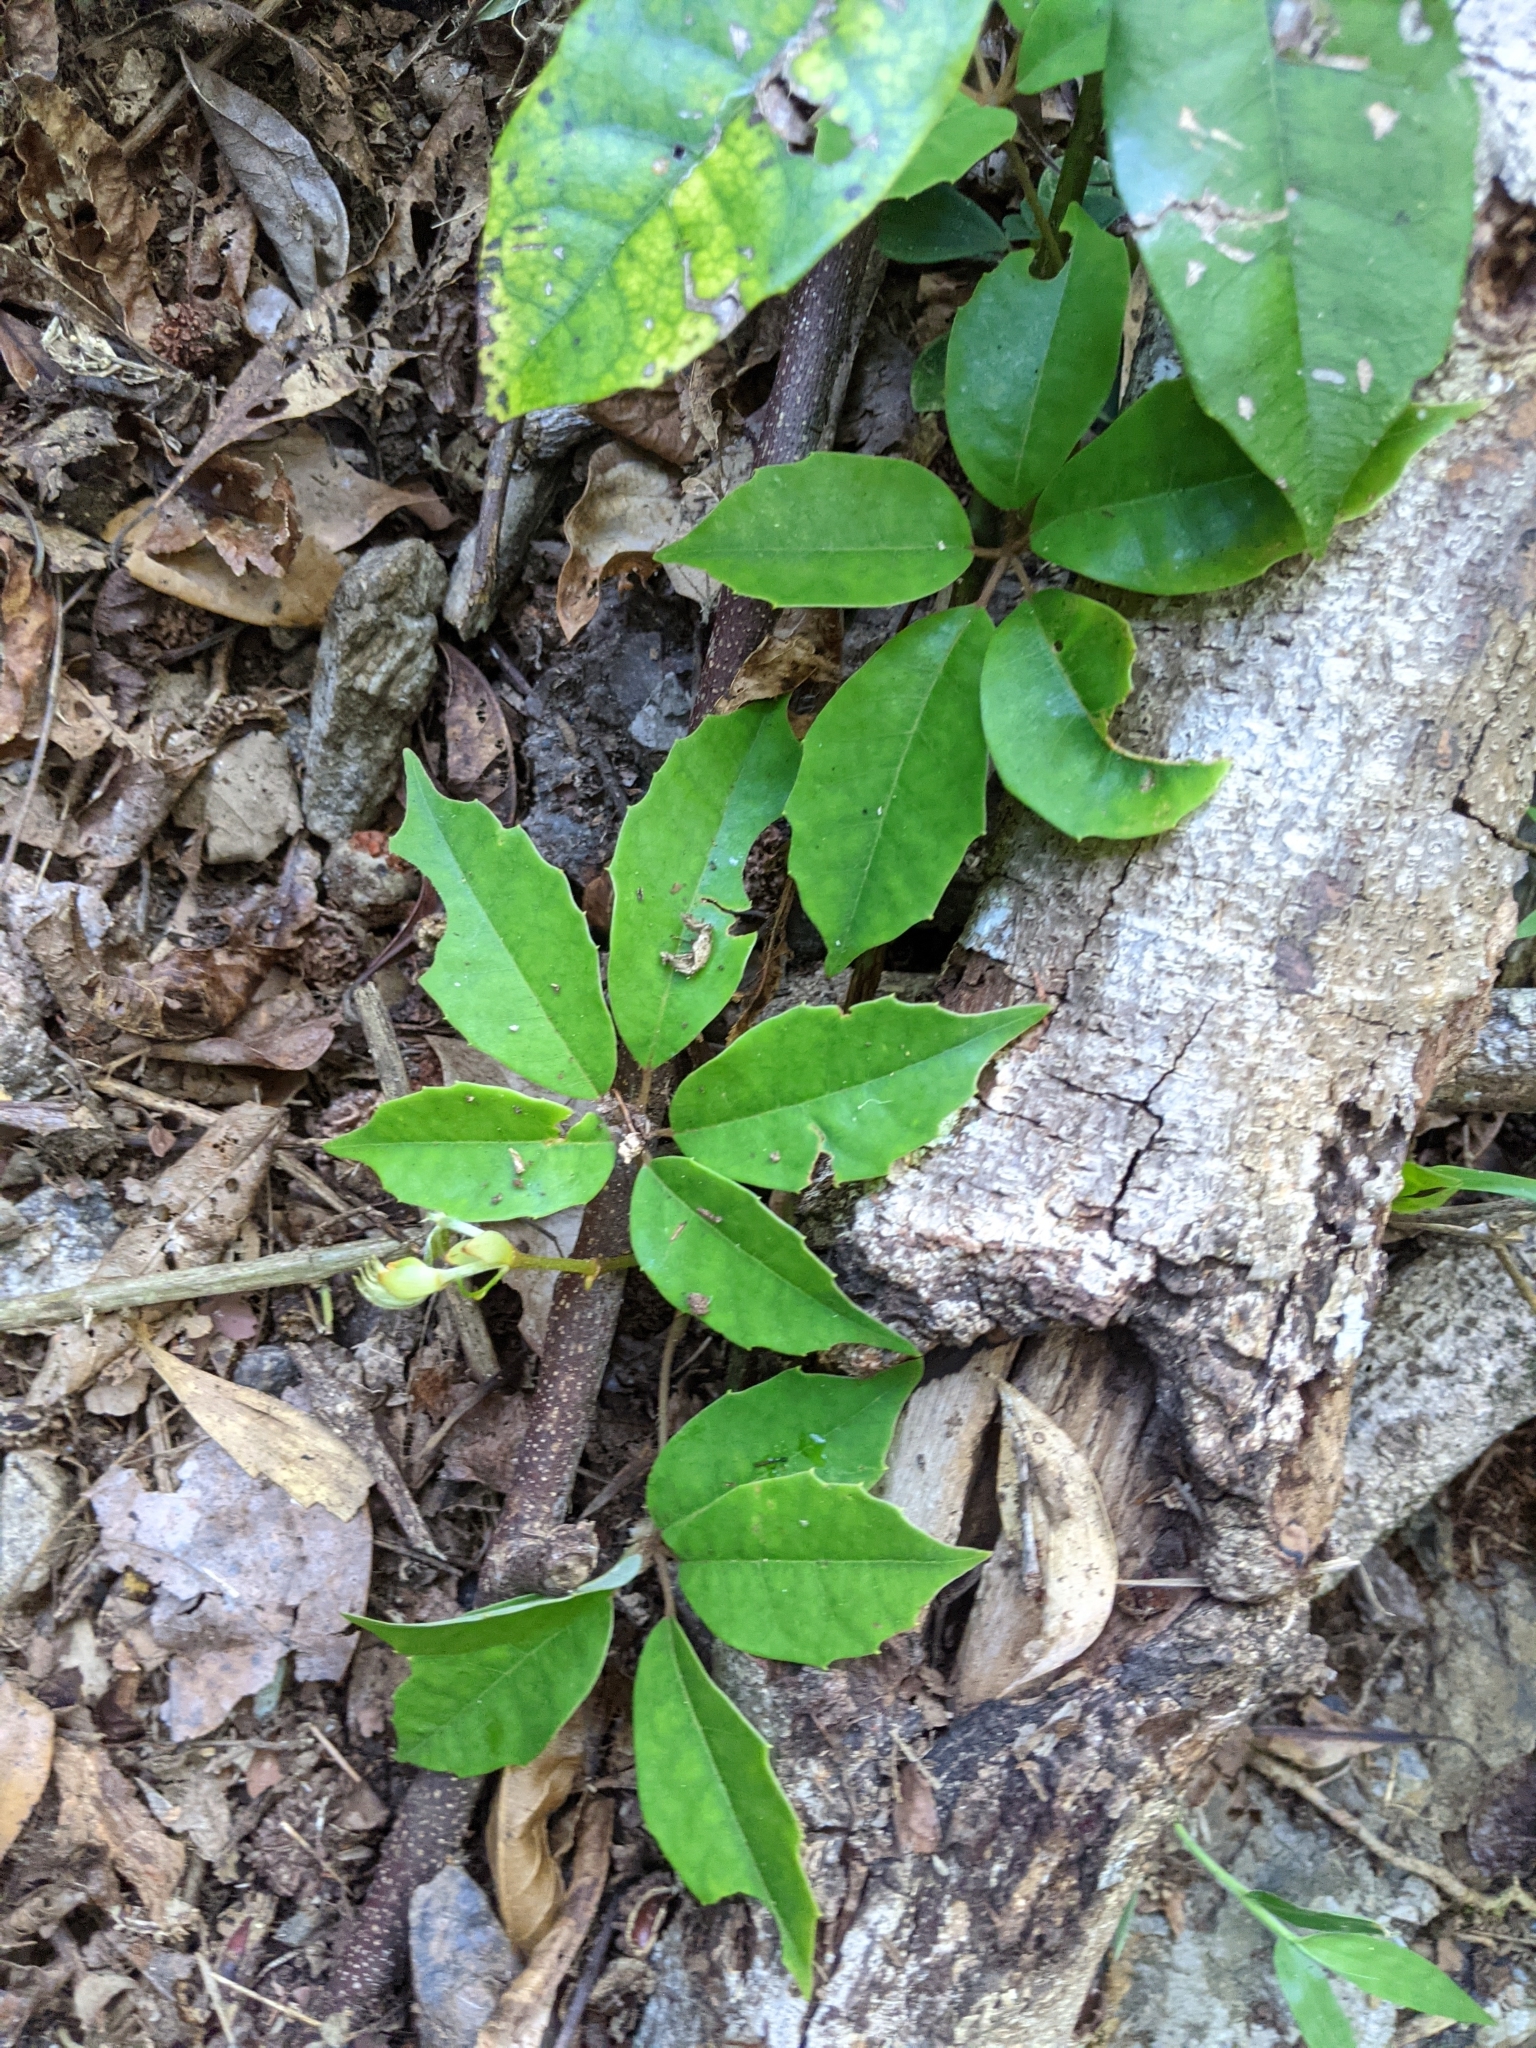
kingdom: Plantae
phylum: Tracheophyta
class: Magnoliopsida
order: Vitales
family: Vitaceae
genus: Nothocissus
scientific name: Nothocissus hypoglauca
